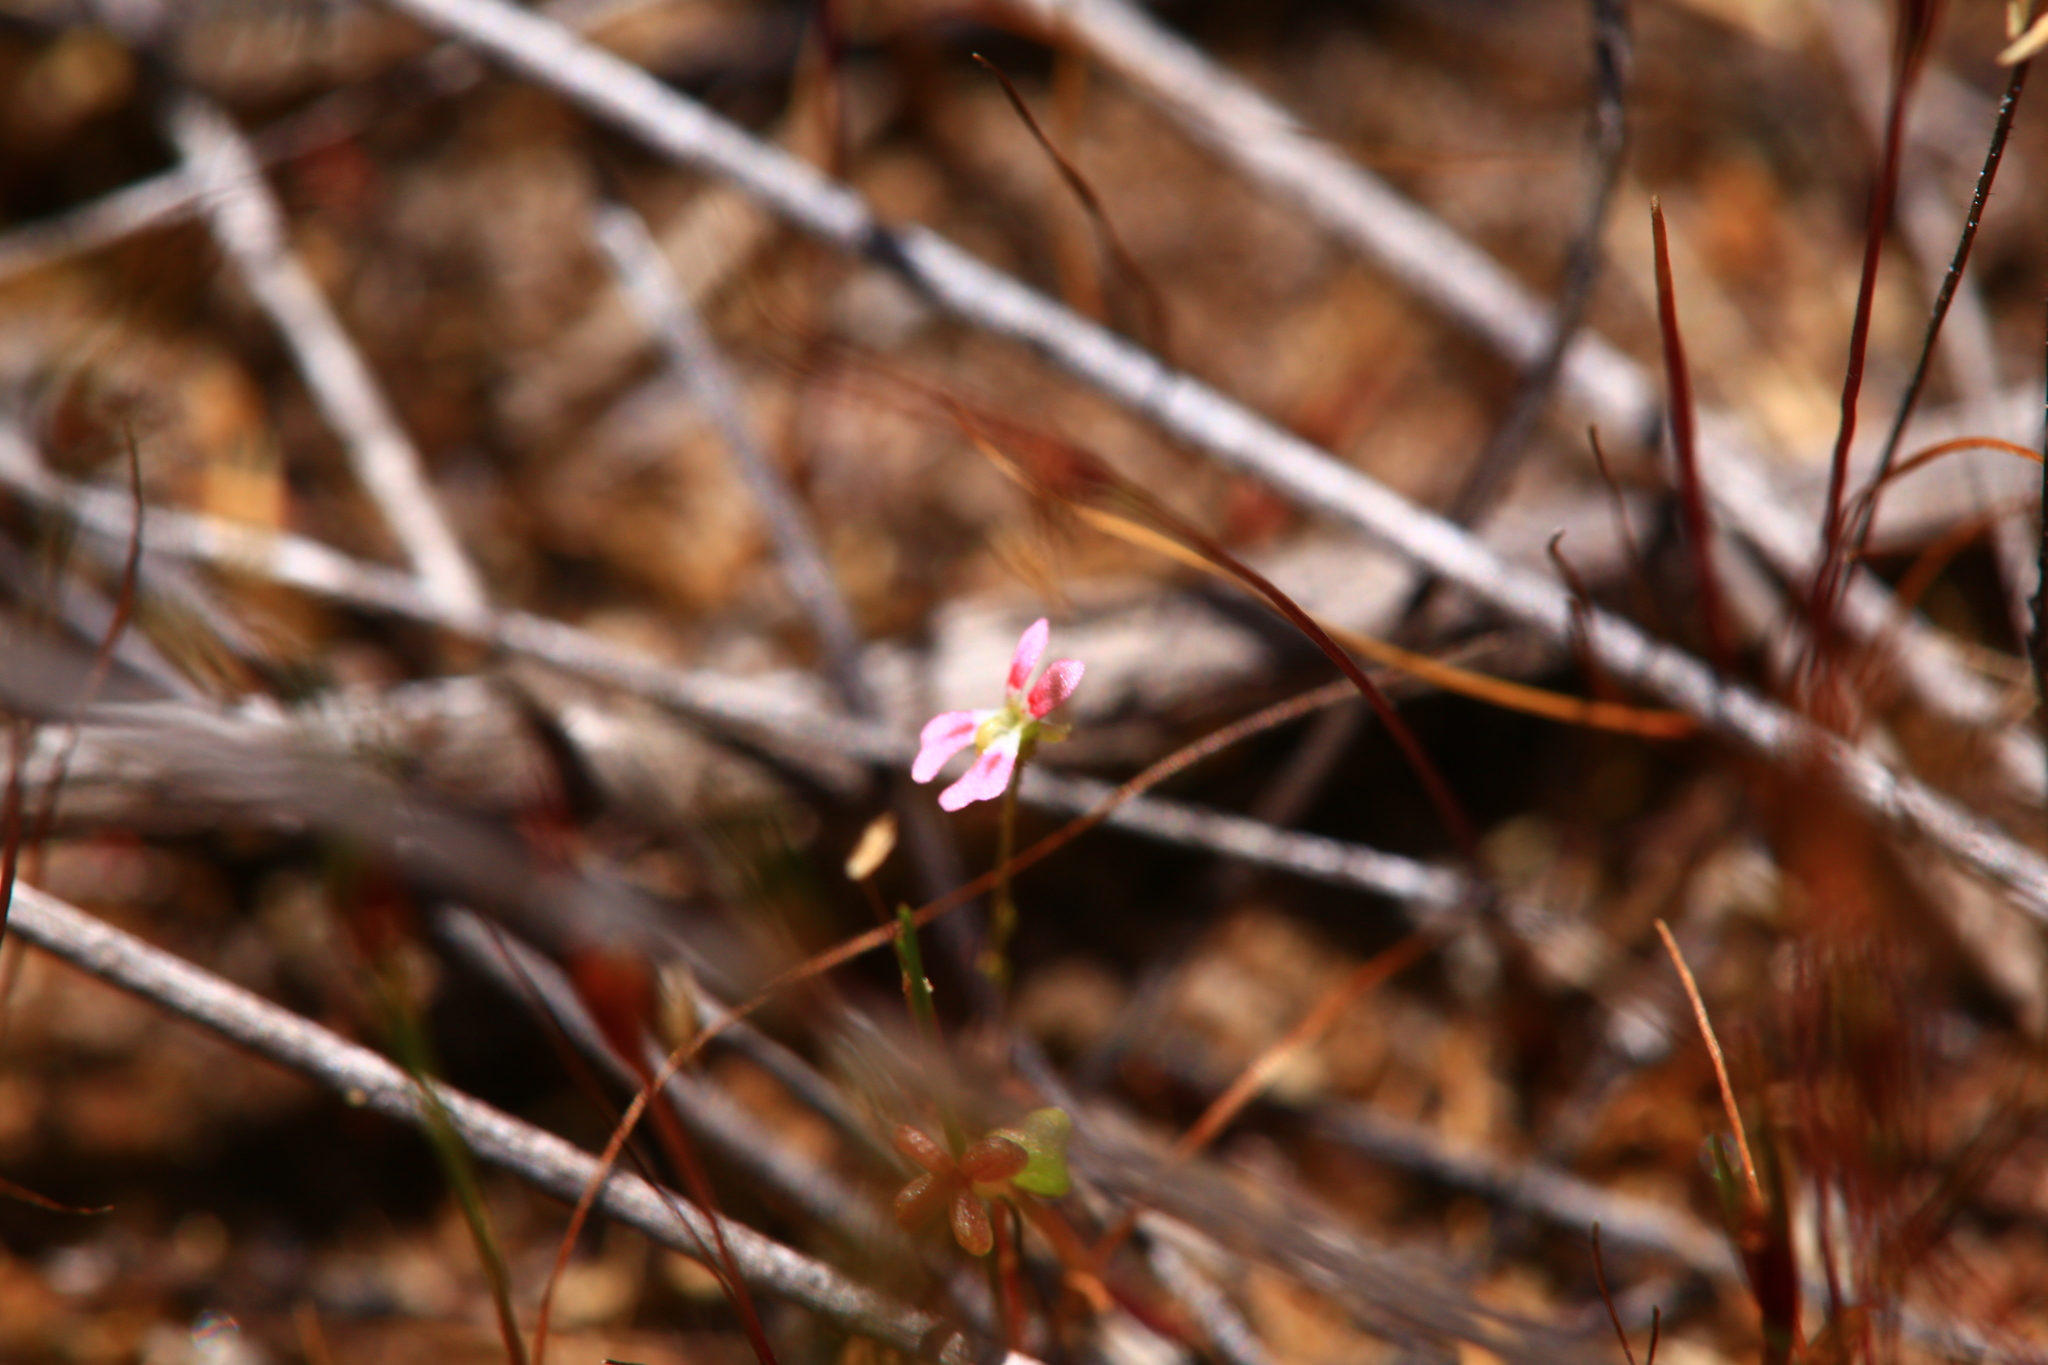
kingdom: Plantae
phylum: Tracheophyta
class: Magnoliopsida
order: Asterales
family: Stylidiaceae
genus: Stylidium
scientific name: Stylidium calcaratum
